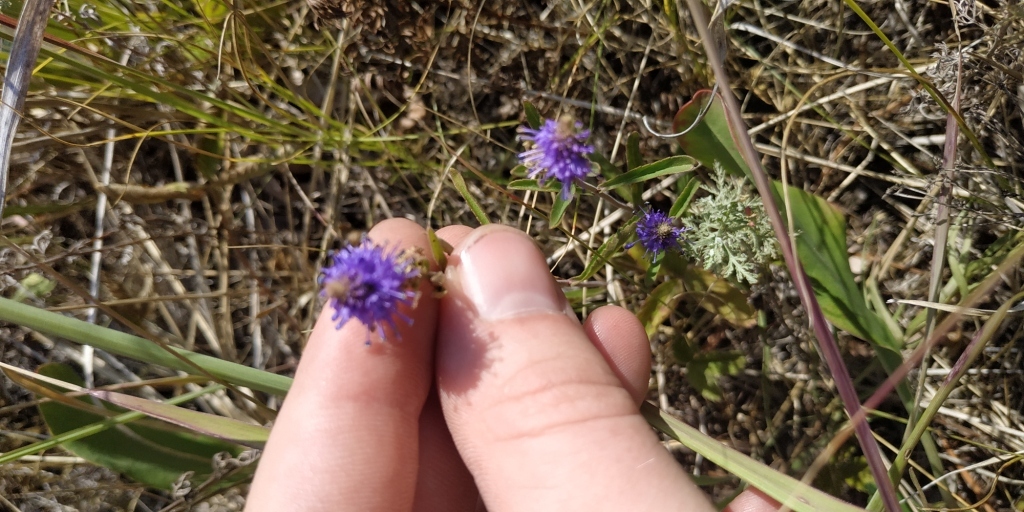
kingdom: Plantae
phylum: Tracheophyta
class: Magnoliopsida
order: Lamiales
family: Plantaginaceae
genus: Veronica
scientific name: Veronica spicata
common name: Spiked speedwell
